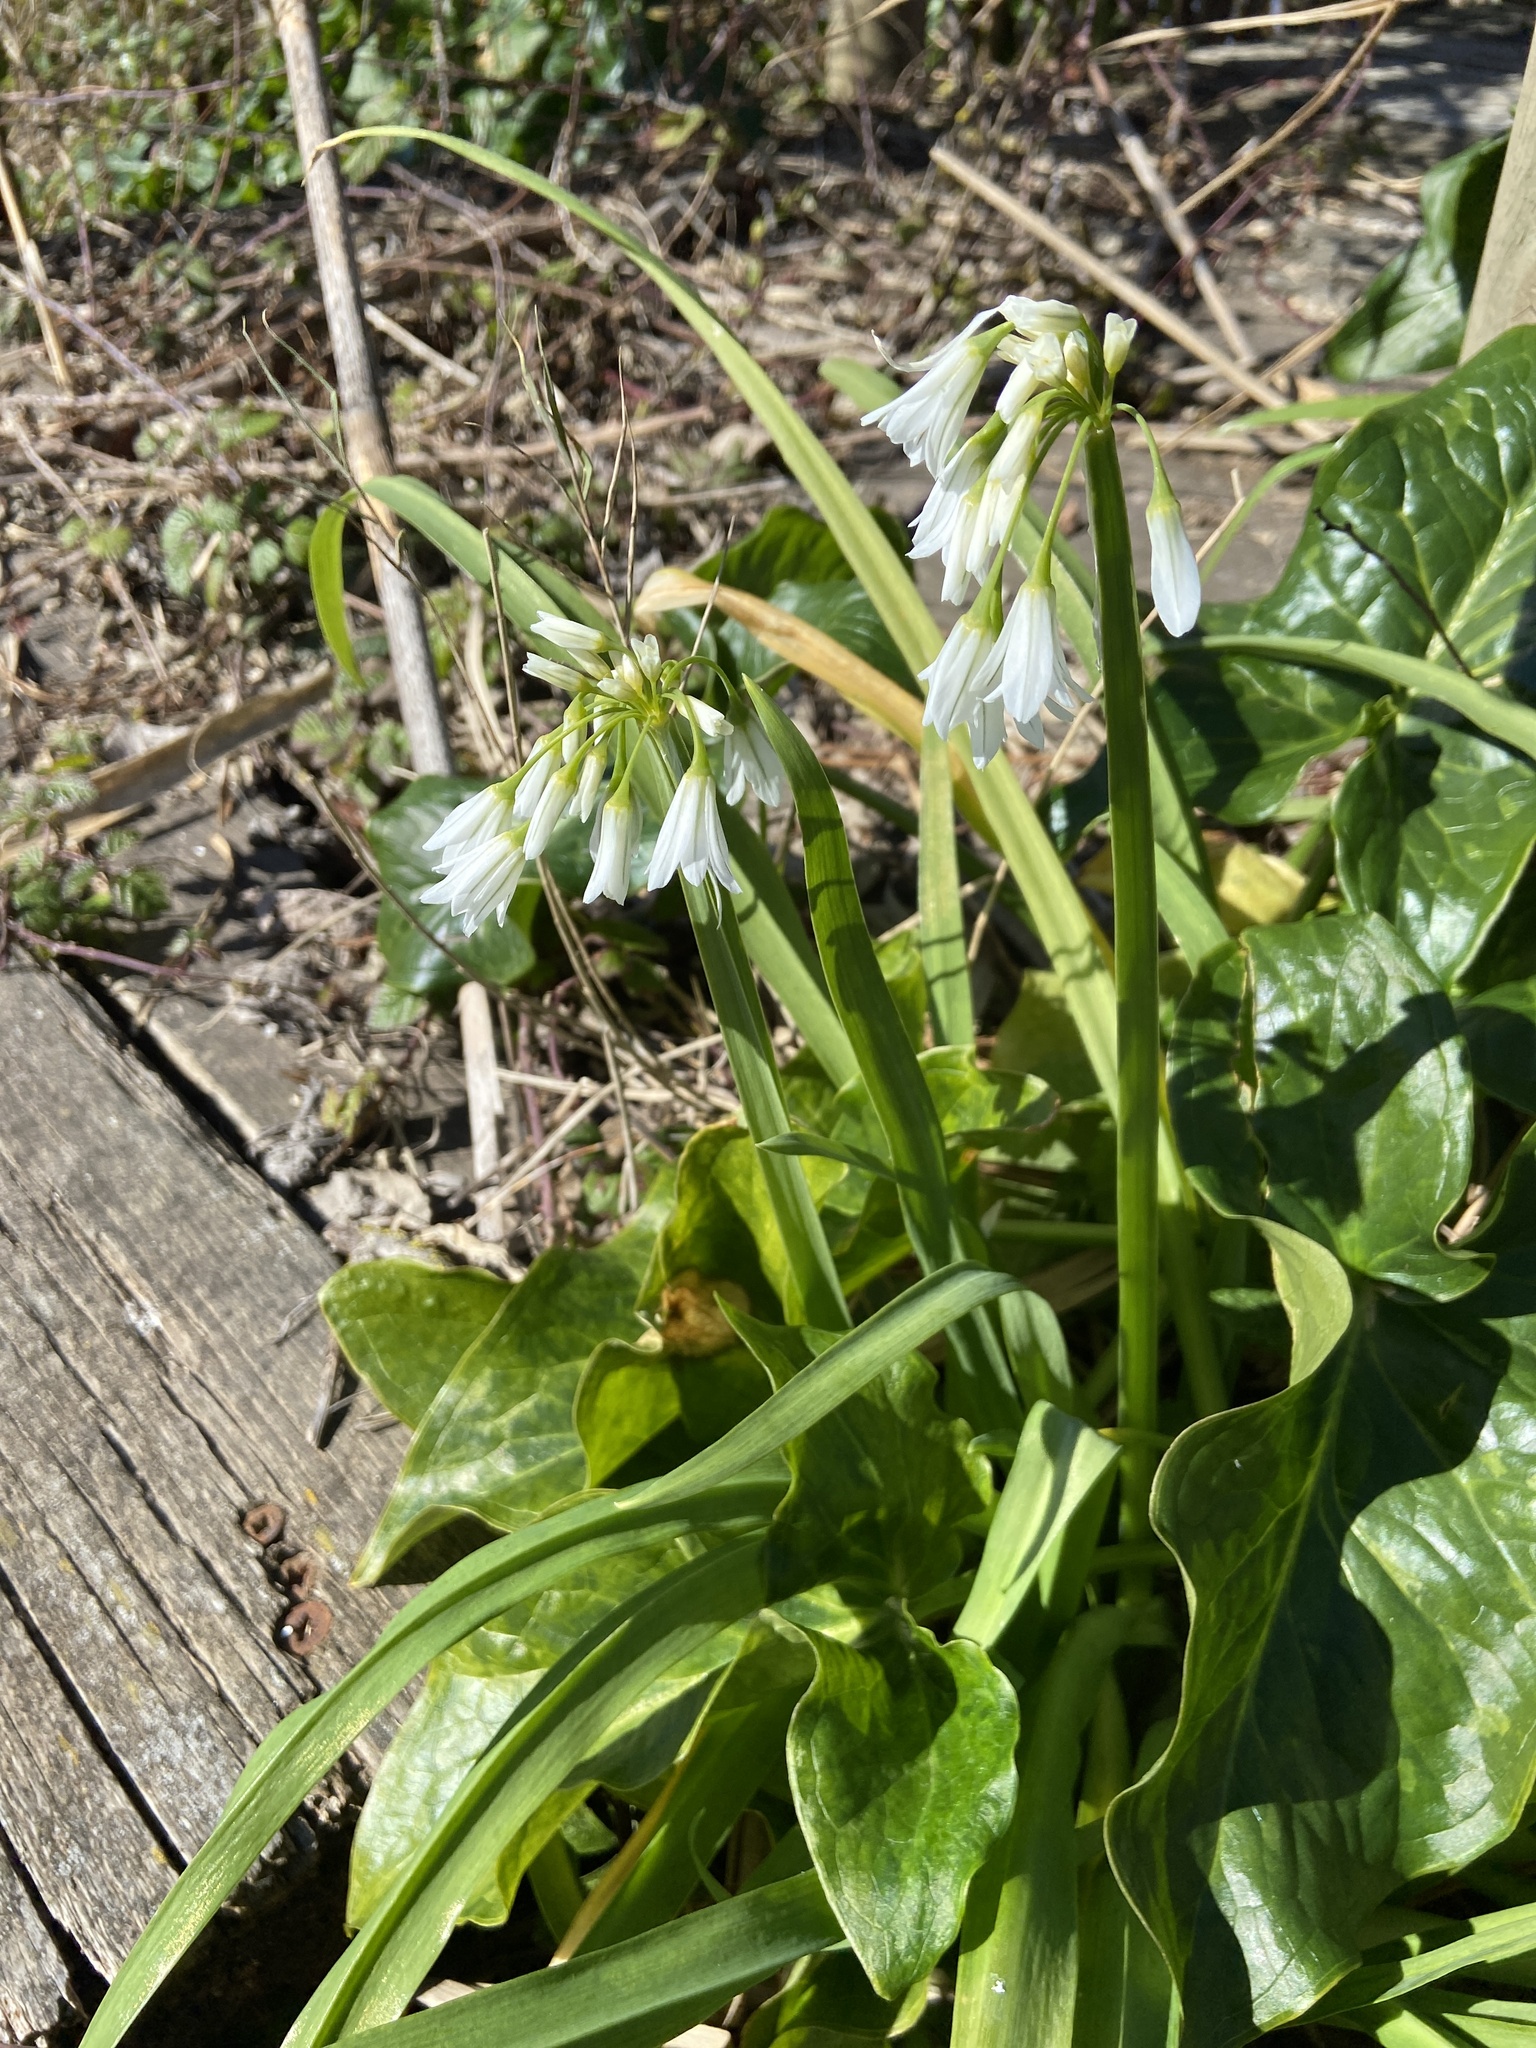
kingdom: Plantae
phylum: Tracheophyta
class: Liliopsida
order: Asparagales
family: Amaryllidaceae
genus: Allium
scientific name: Allium triquetrum
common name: Three-cornered garlic
